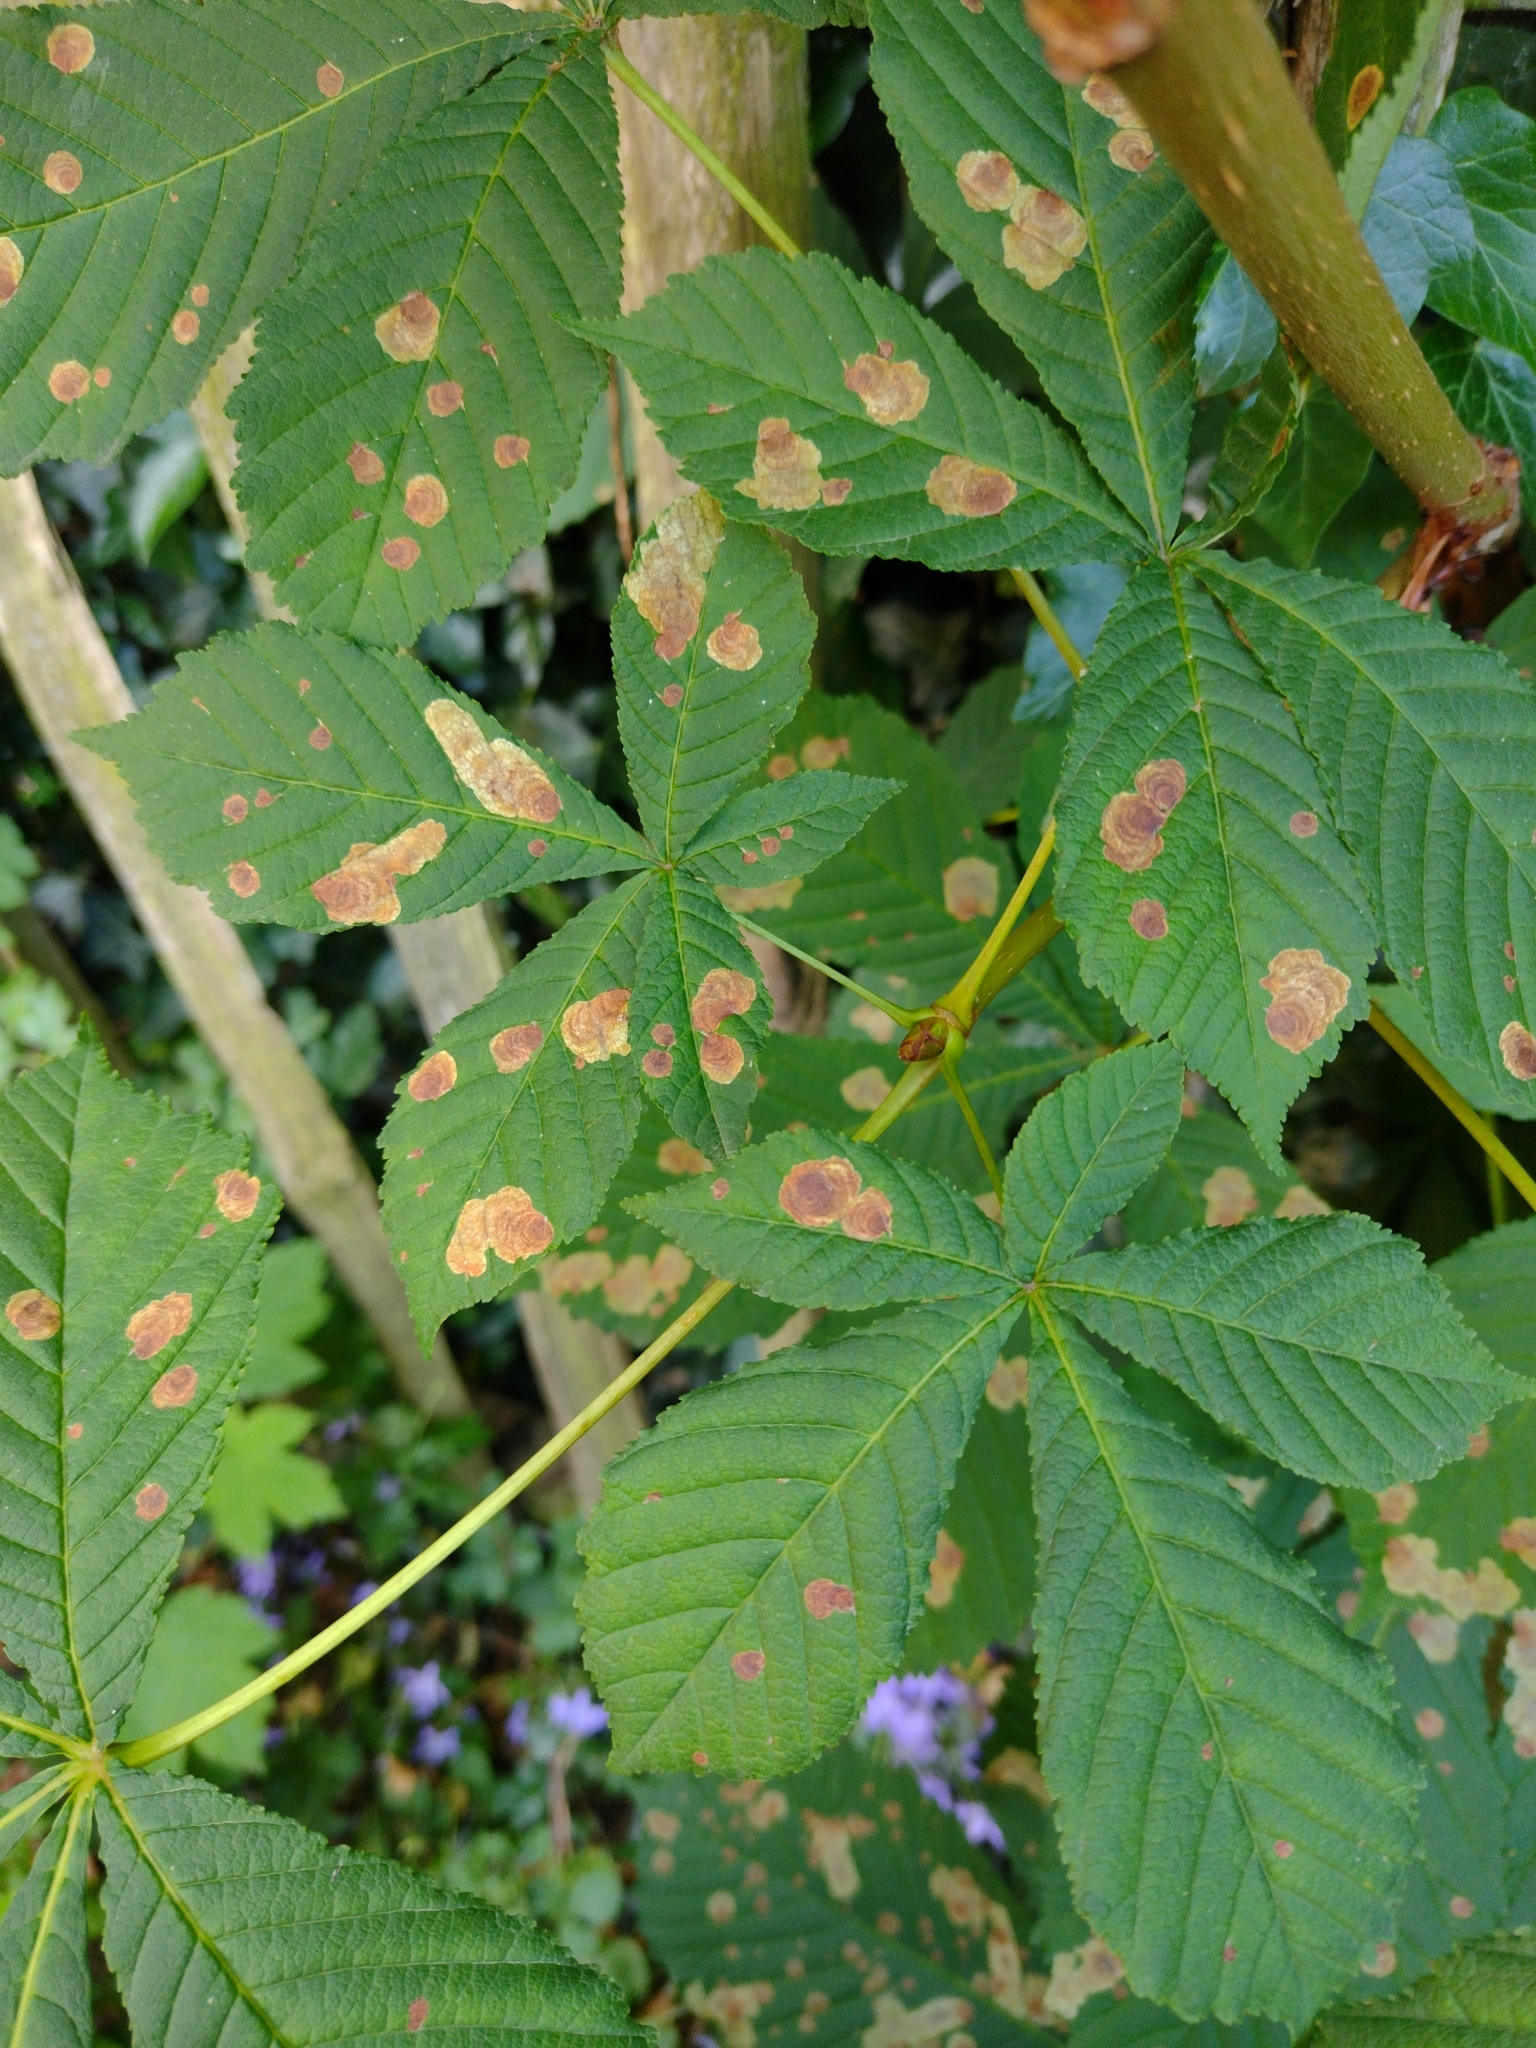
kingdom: Animalia
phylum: Arthropoda
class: Insecta
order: Lepidoptera
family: Gracillariidae
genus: Cameraria
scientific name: Cameraria ohridella
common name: Horse-chestnut leaf-miner
